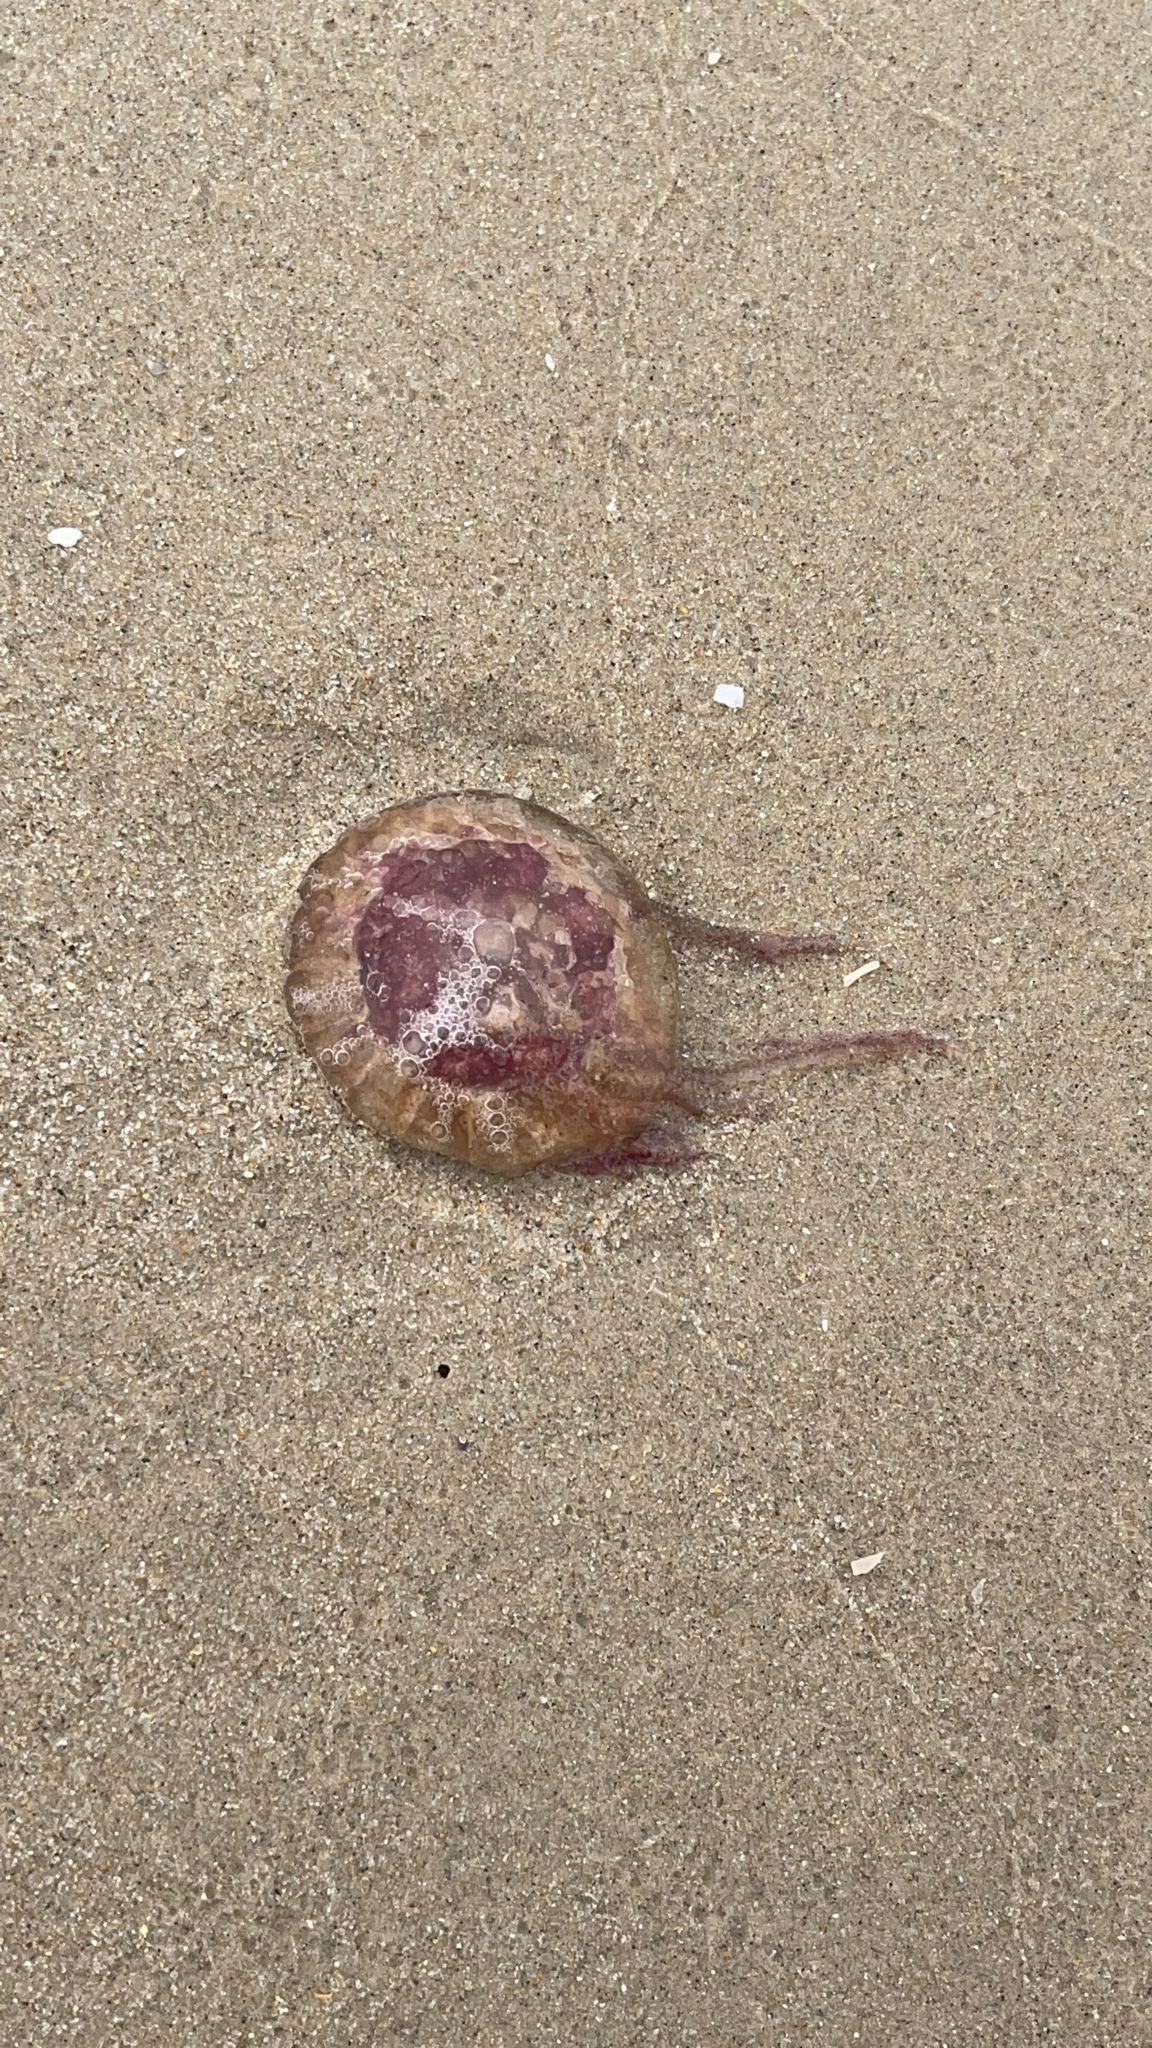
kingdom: Animalia
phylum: Cnidaria
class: Scyphozoa
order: Semaeostomeae
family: Pelagiidae
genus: Pelagia
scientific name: Pelagia noctiluca
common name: Mauve stinger
